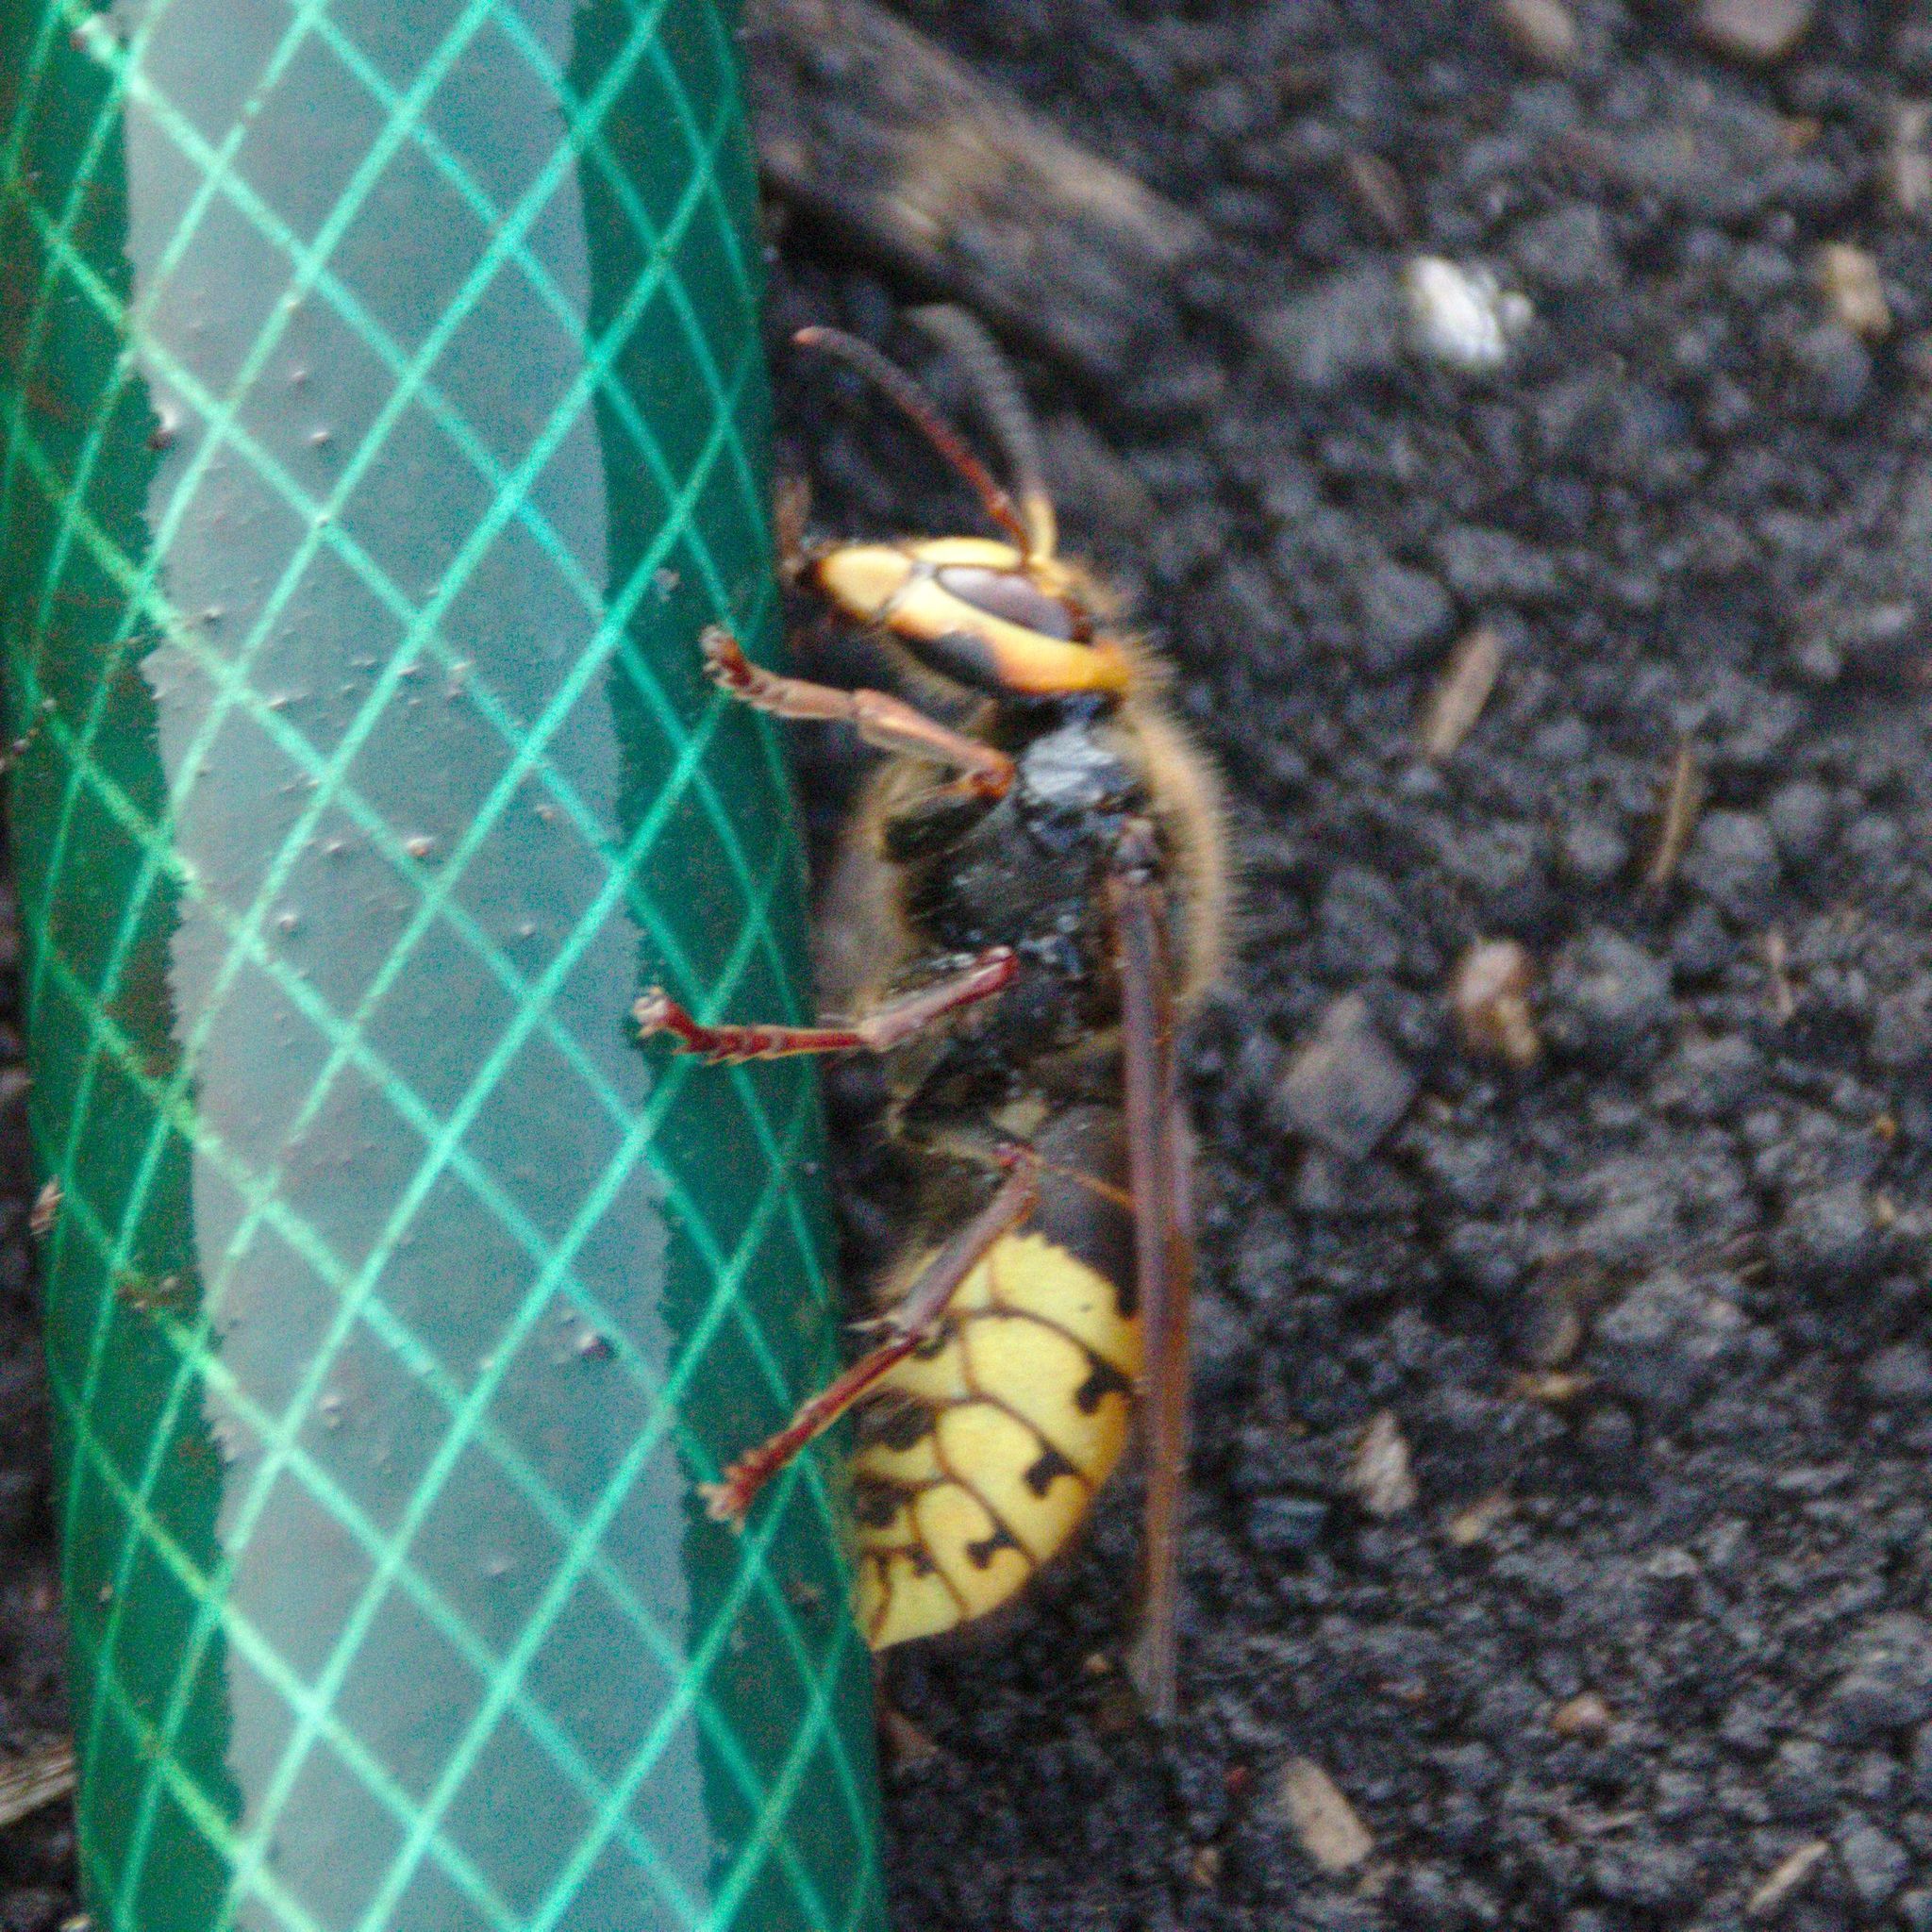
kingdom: Animalia
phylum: Arthropoda
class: Insecta
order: Hymenoptera
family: Vespidae
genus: Vespa
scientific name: Vespa crabro
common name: Hornet
